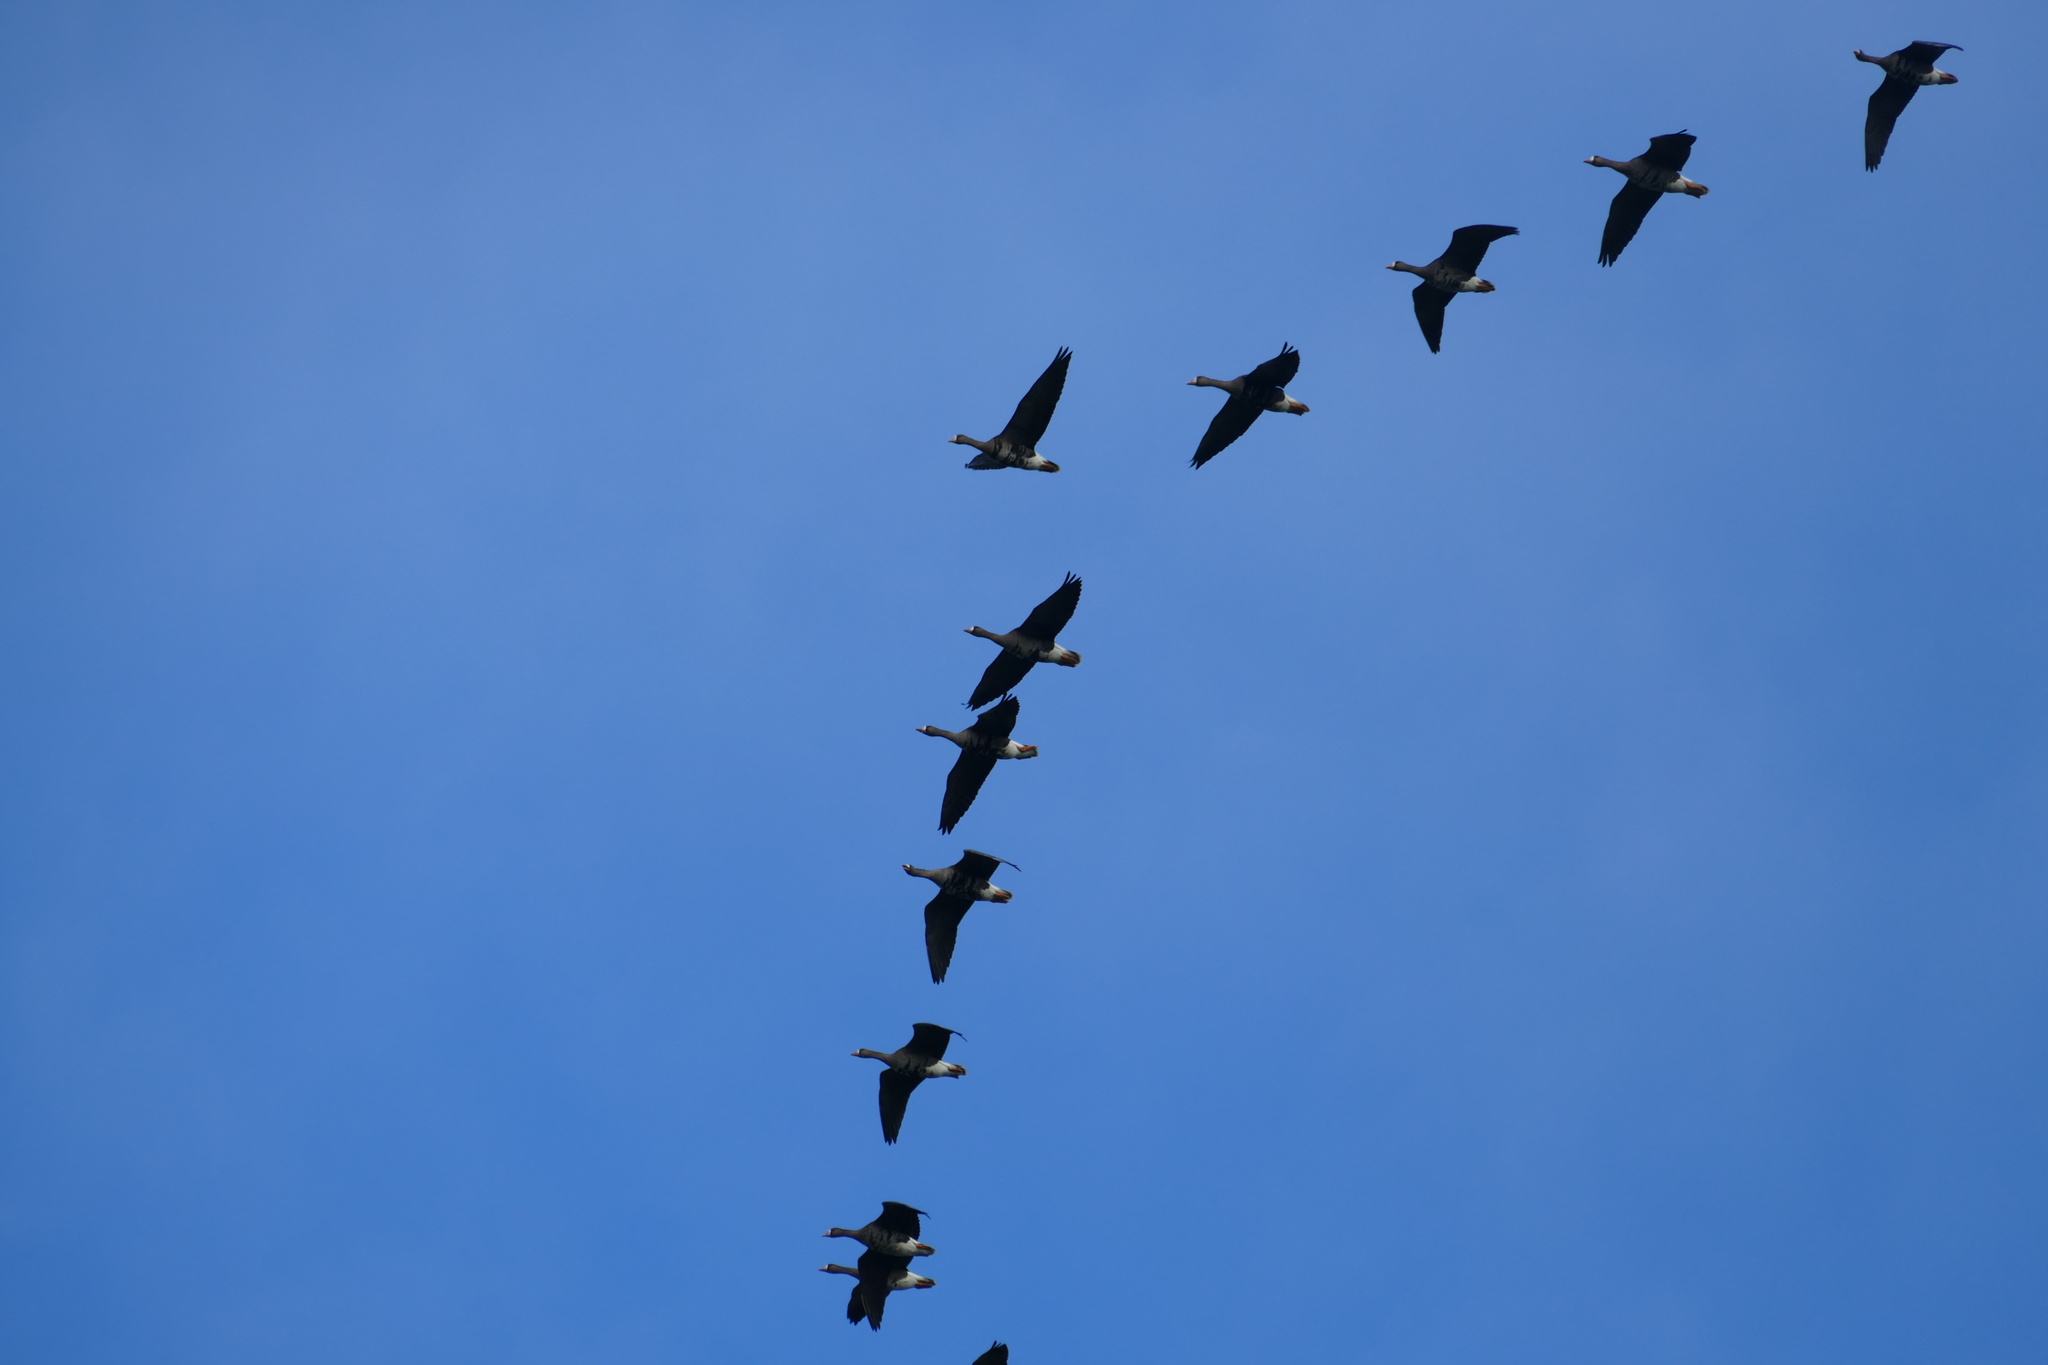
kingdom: Animalia
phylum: Chordata
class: Aves
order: Anseriformes
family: Anatidae
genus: Anser
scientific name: Anser albifrons
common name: Greater white-fronted goose
